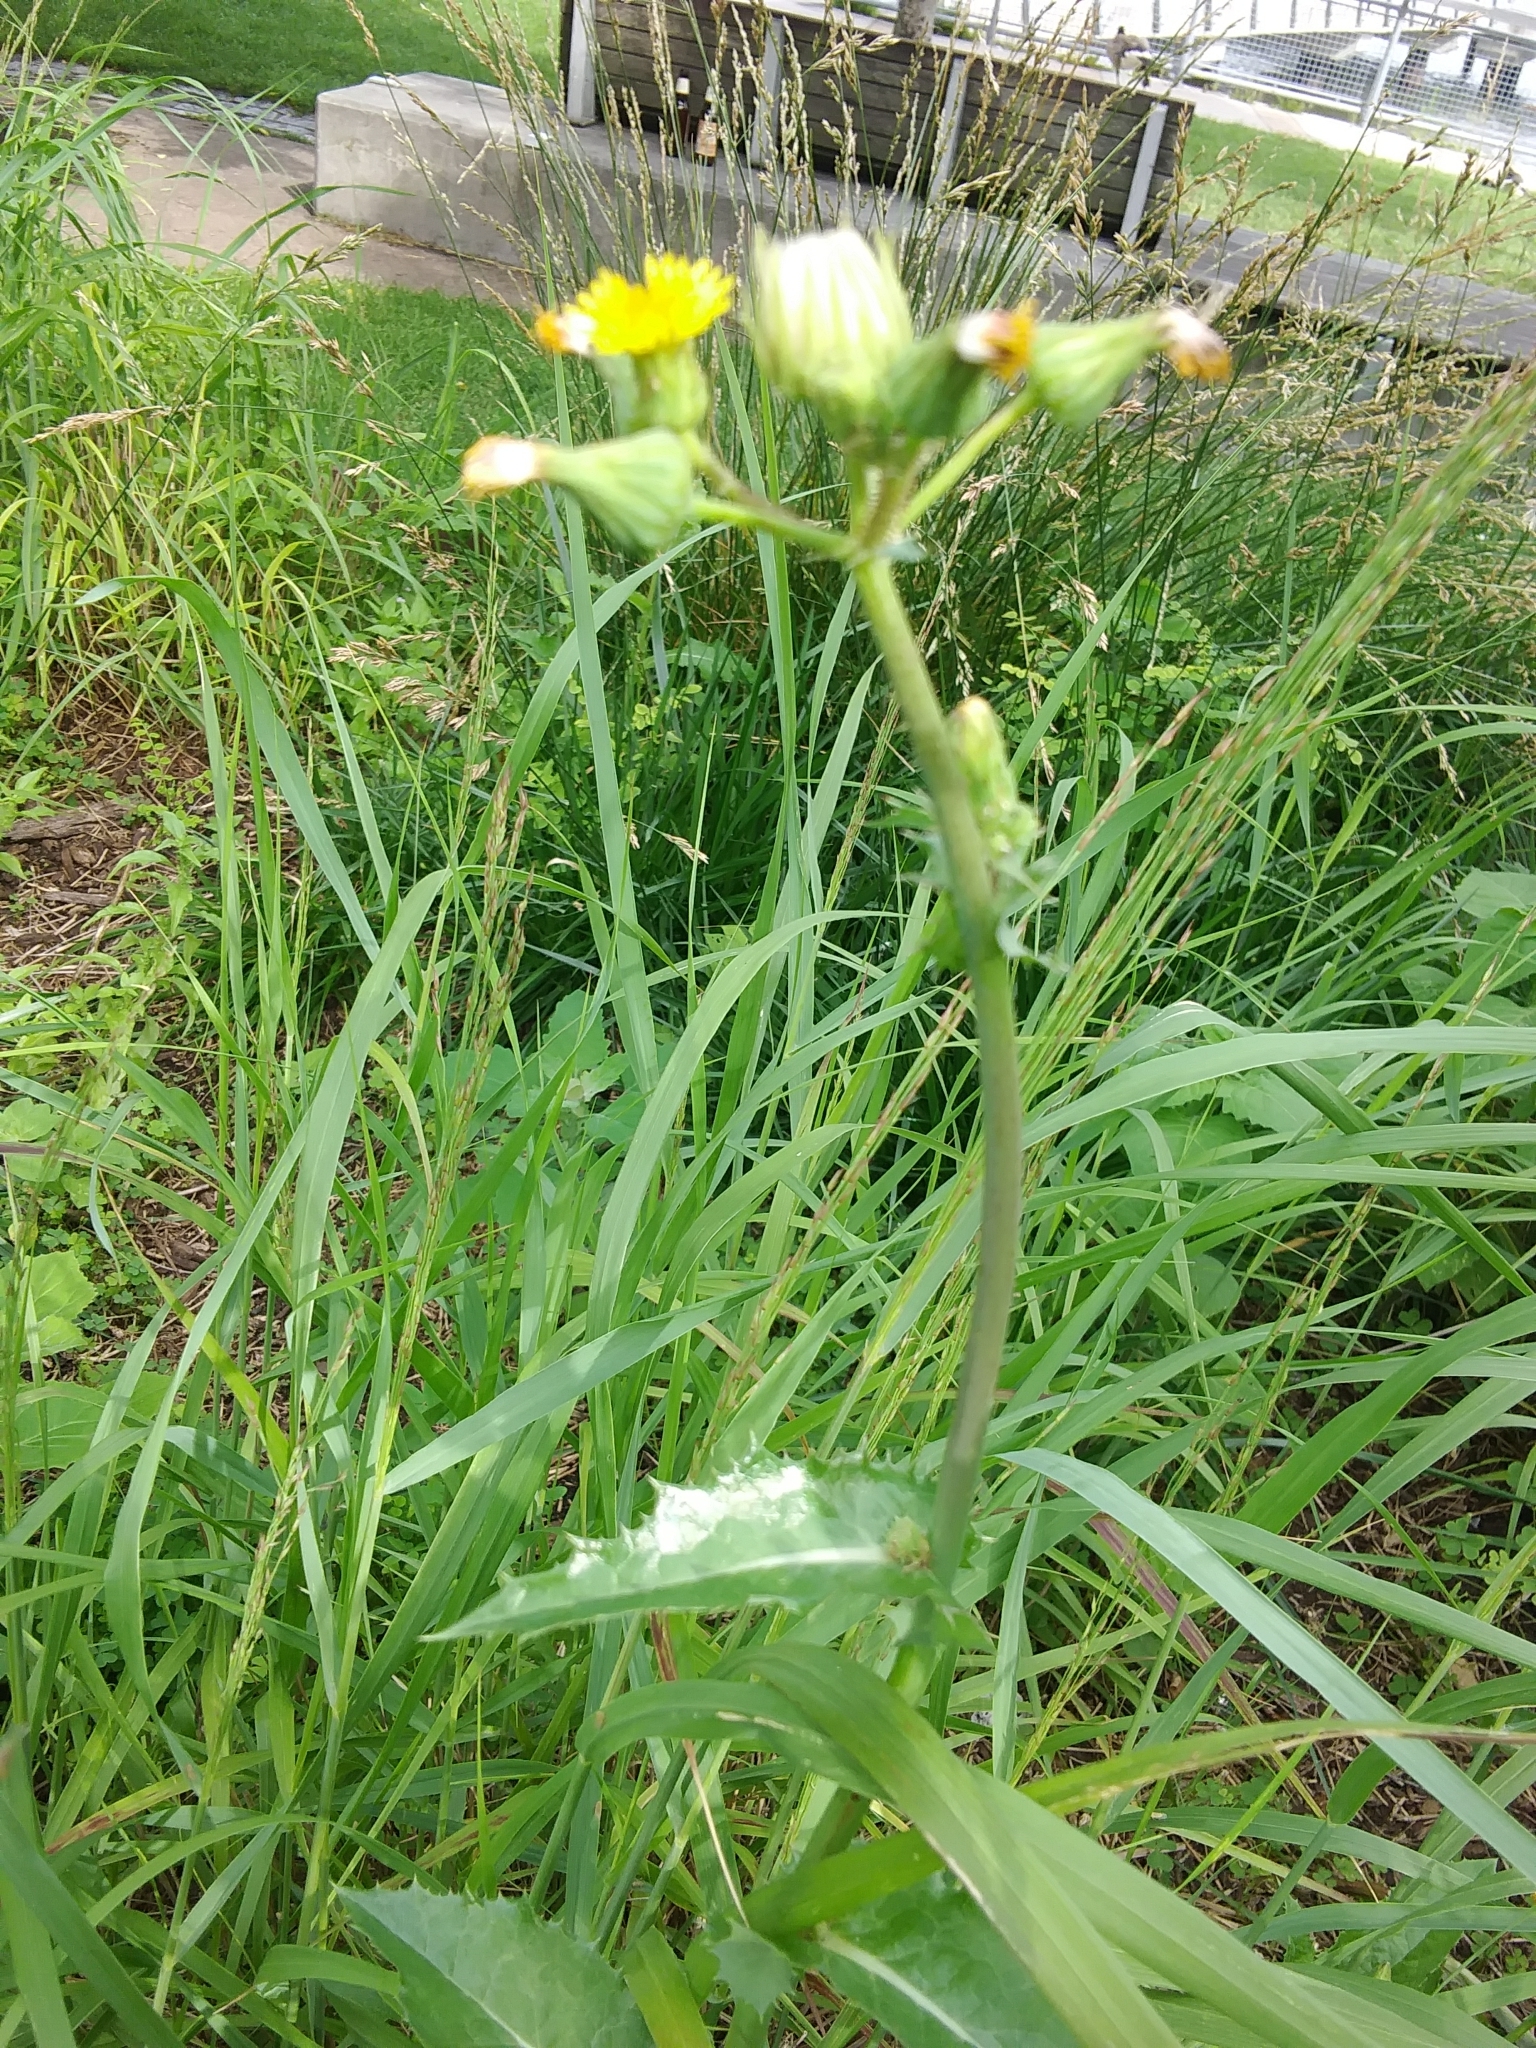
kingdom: Plantae
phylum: Tracheophyta
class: Magnoliopsida
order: Asterales
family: Asteraceae
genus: Sonchus
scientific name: Sonchus asper
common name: Prickly sow-thistle
